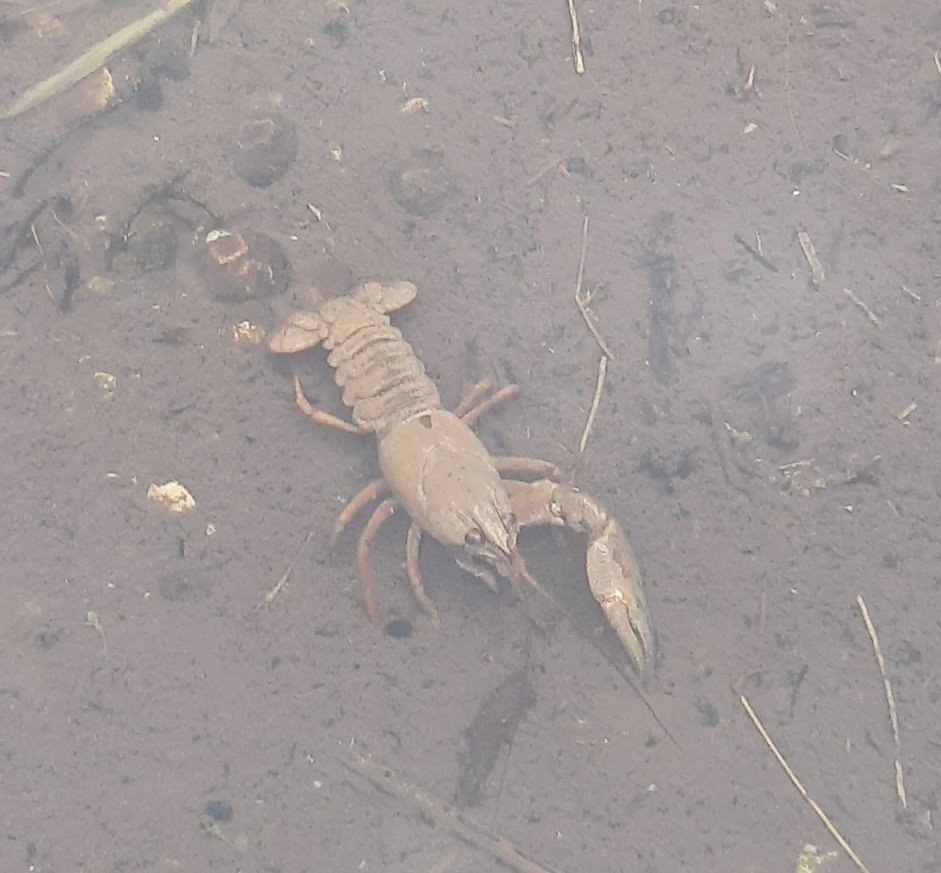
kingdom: Animalia
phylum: Arthropoda
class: Malacostraca
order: Decapoda
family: Astacidae
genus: Pacifastacus
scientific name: Pacifastacus leniusculus
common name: Signal crayfish
